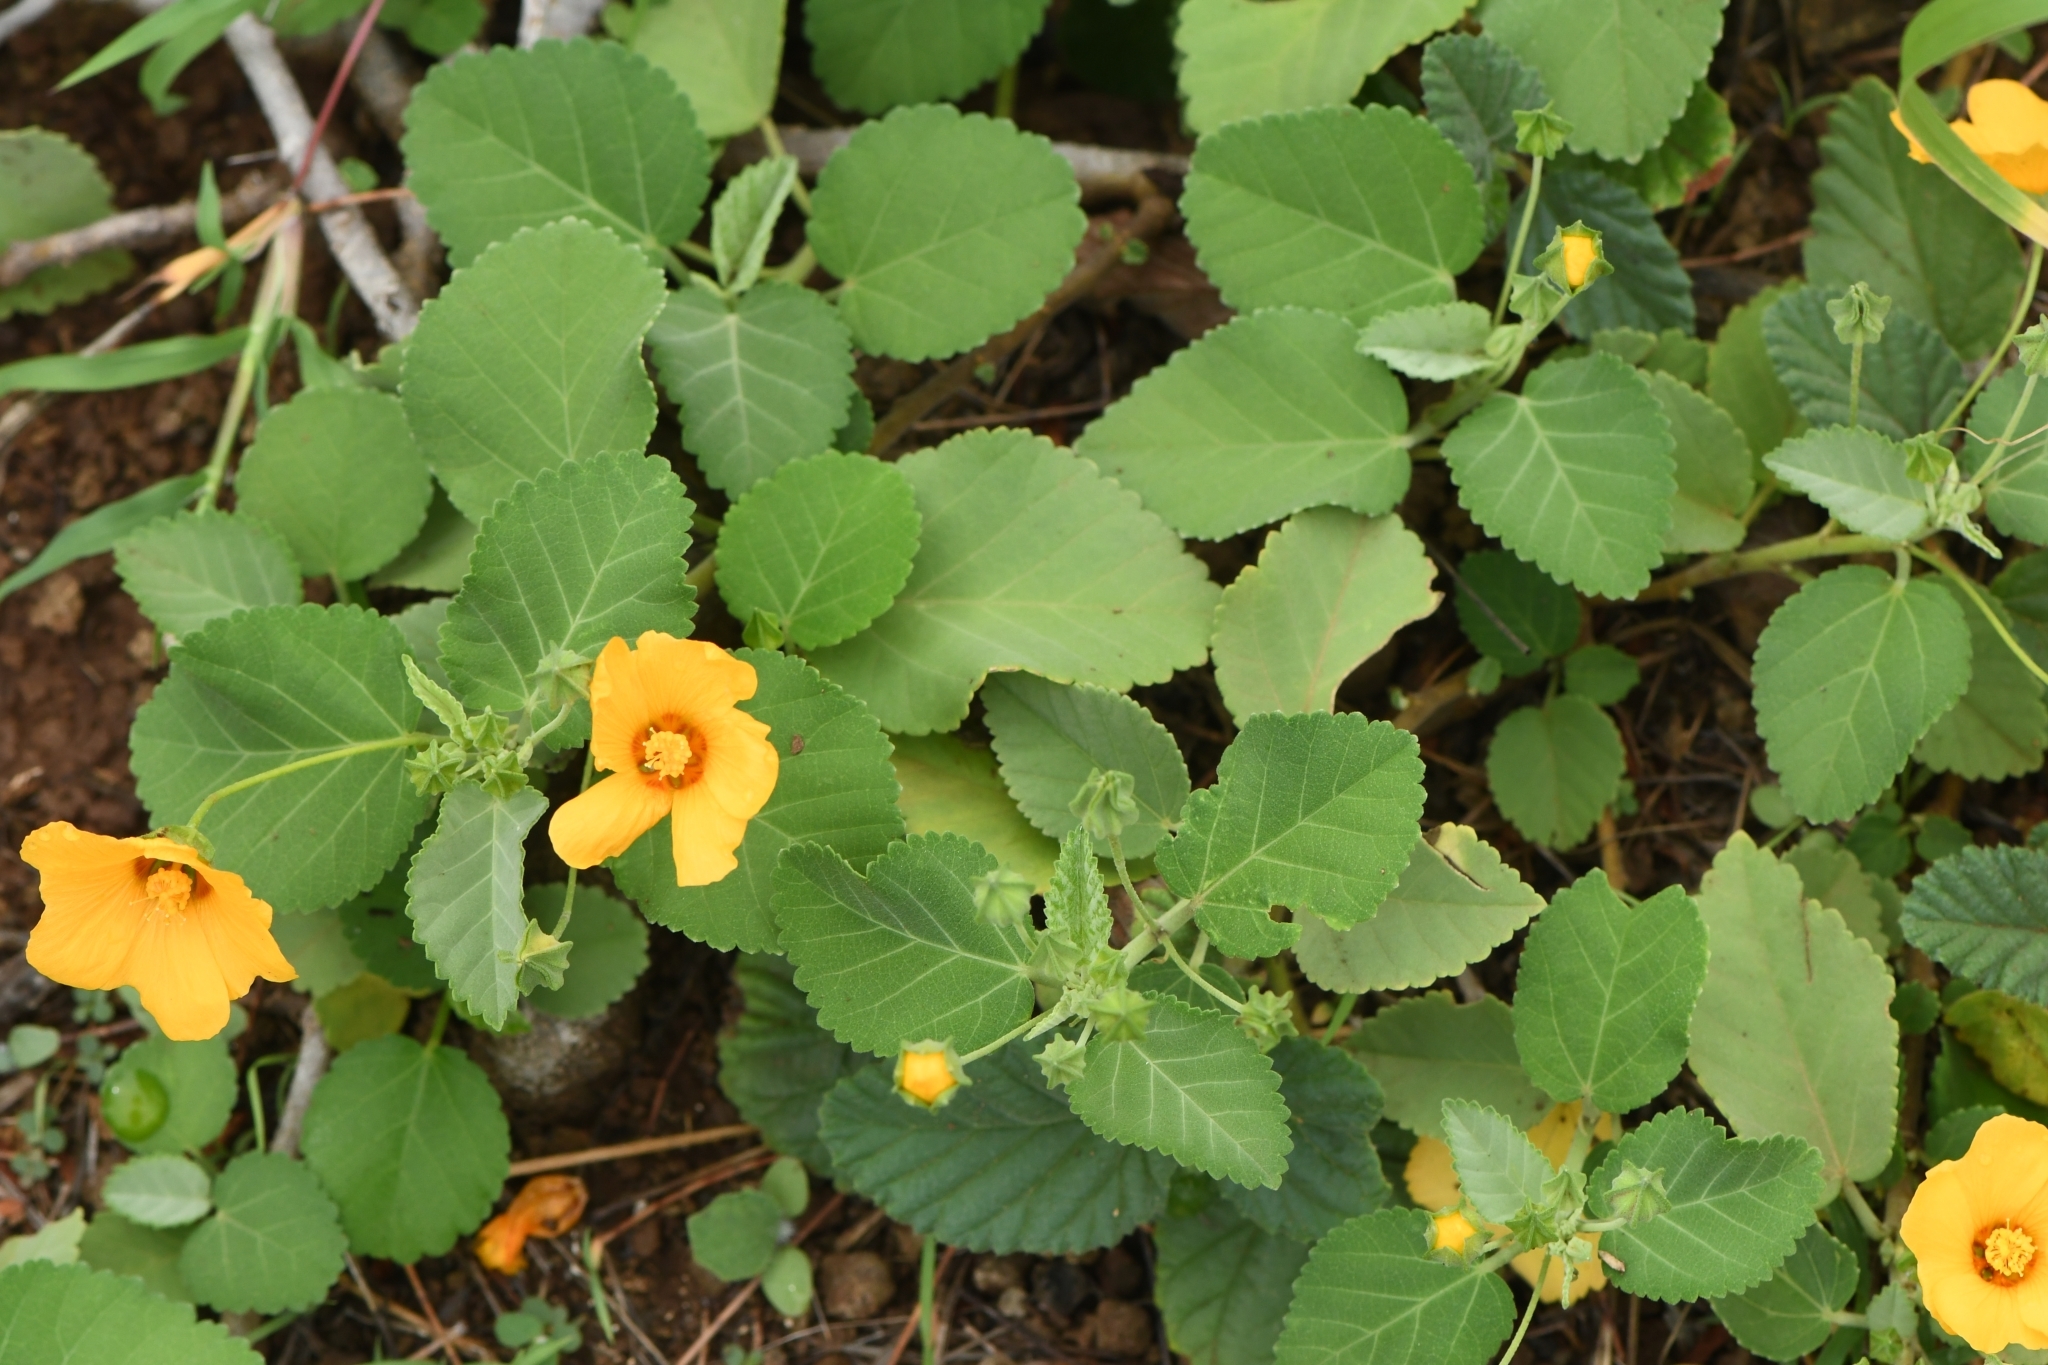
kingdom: Plantae
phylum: Tracheophyta
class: Magnoliopsida
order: Malvales
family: Malvaceae
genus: Sida
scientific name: Sida fallax
